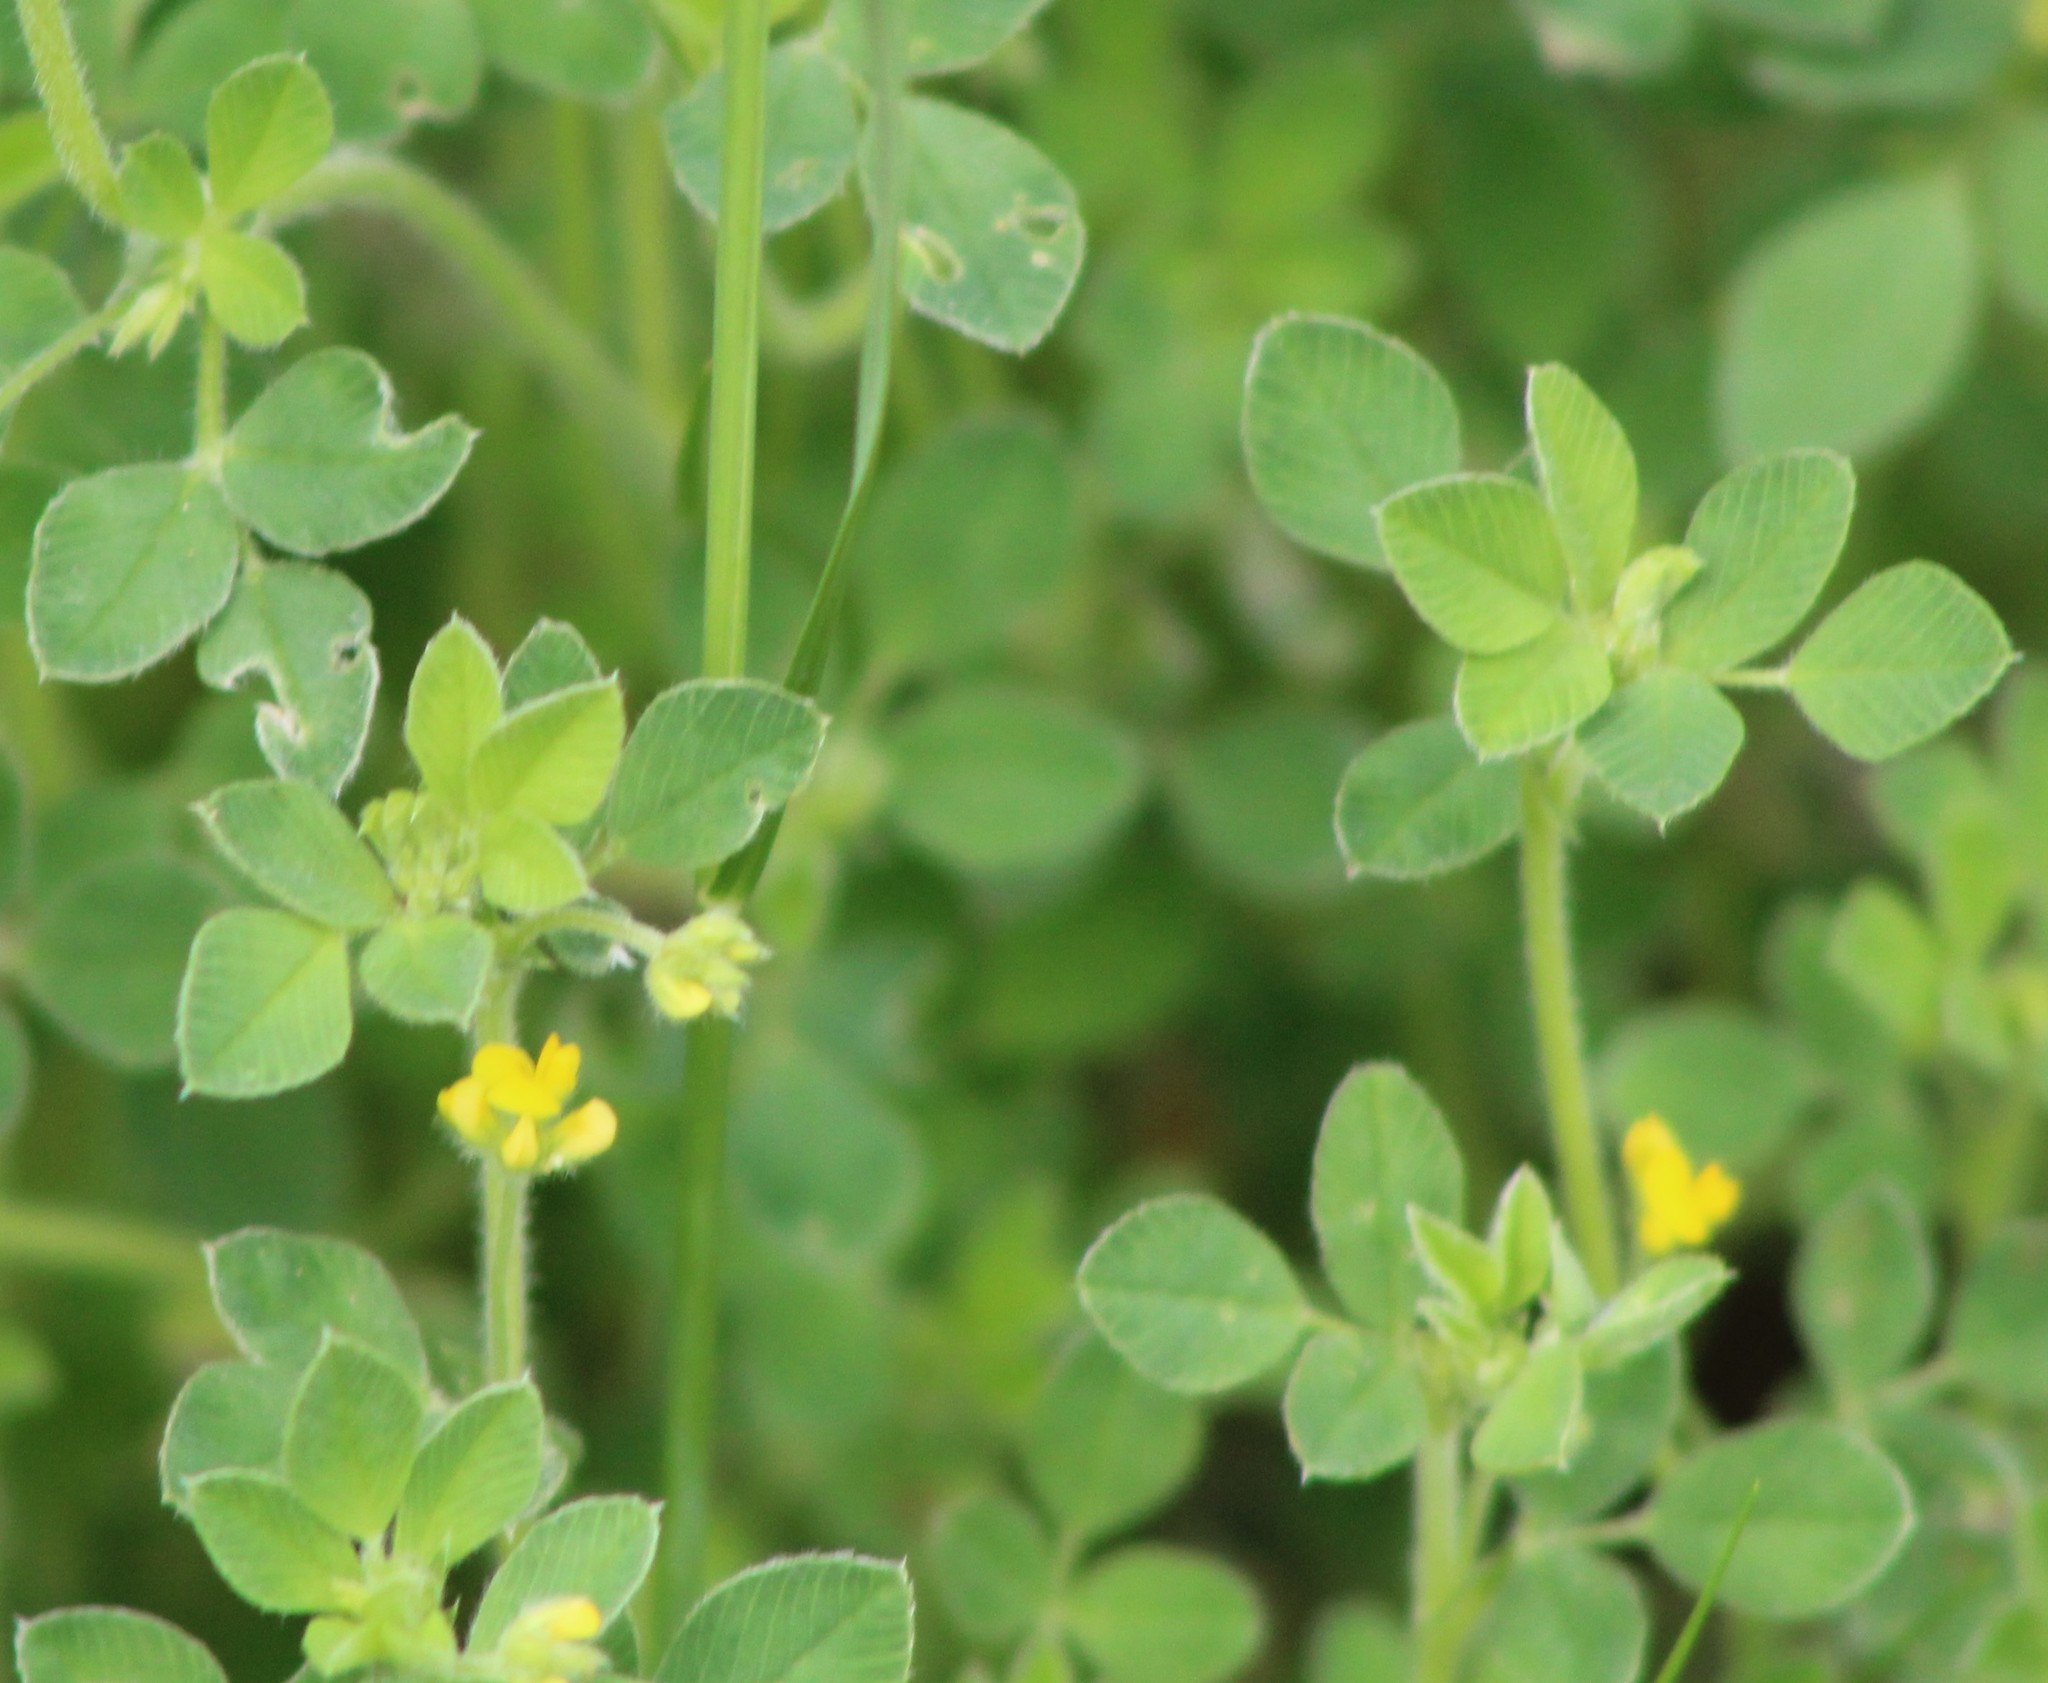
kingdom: Plantae
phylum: Tracheophyta
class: Magnoliopsida
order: Fabales
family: Fabaceae
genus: Medicago
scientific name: Medicago minima
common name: Little bur-clover
